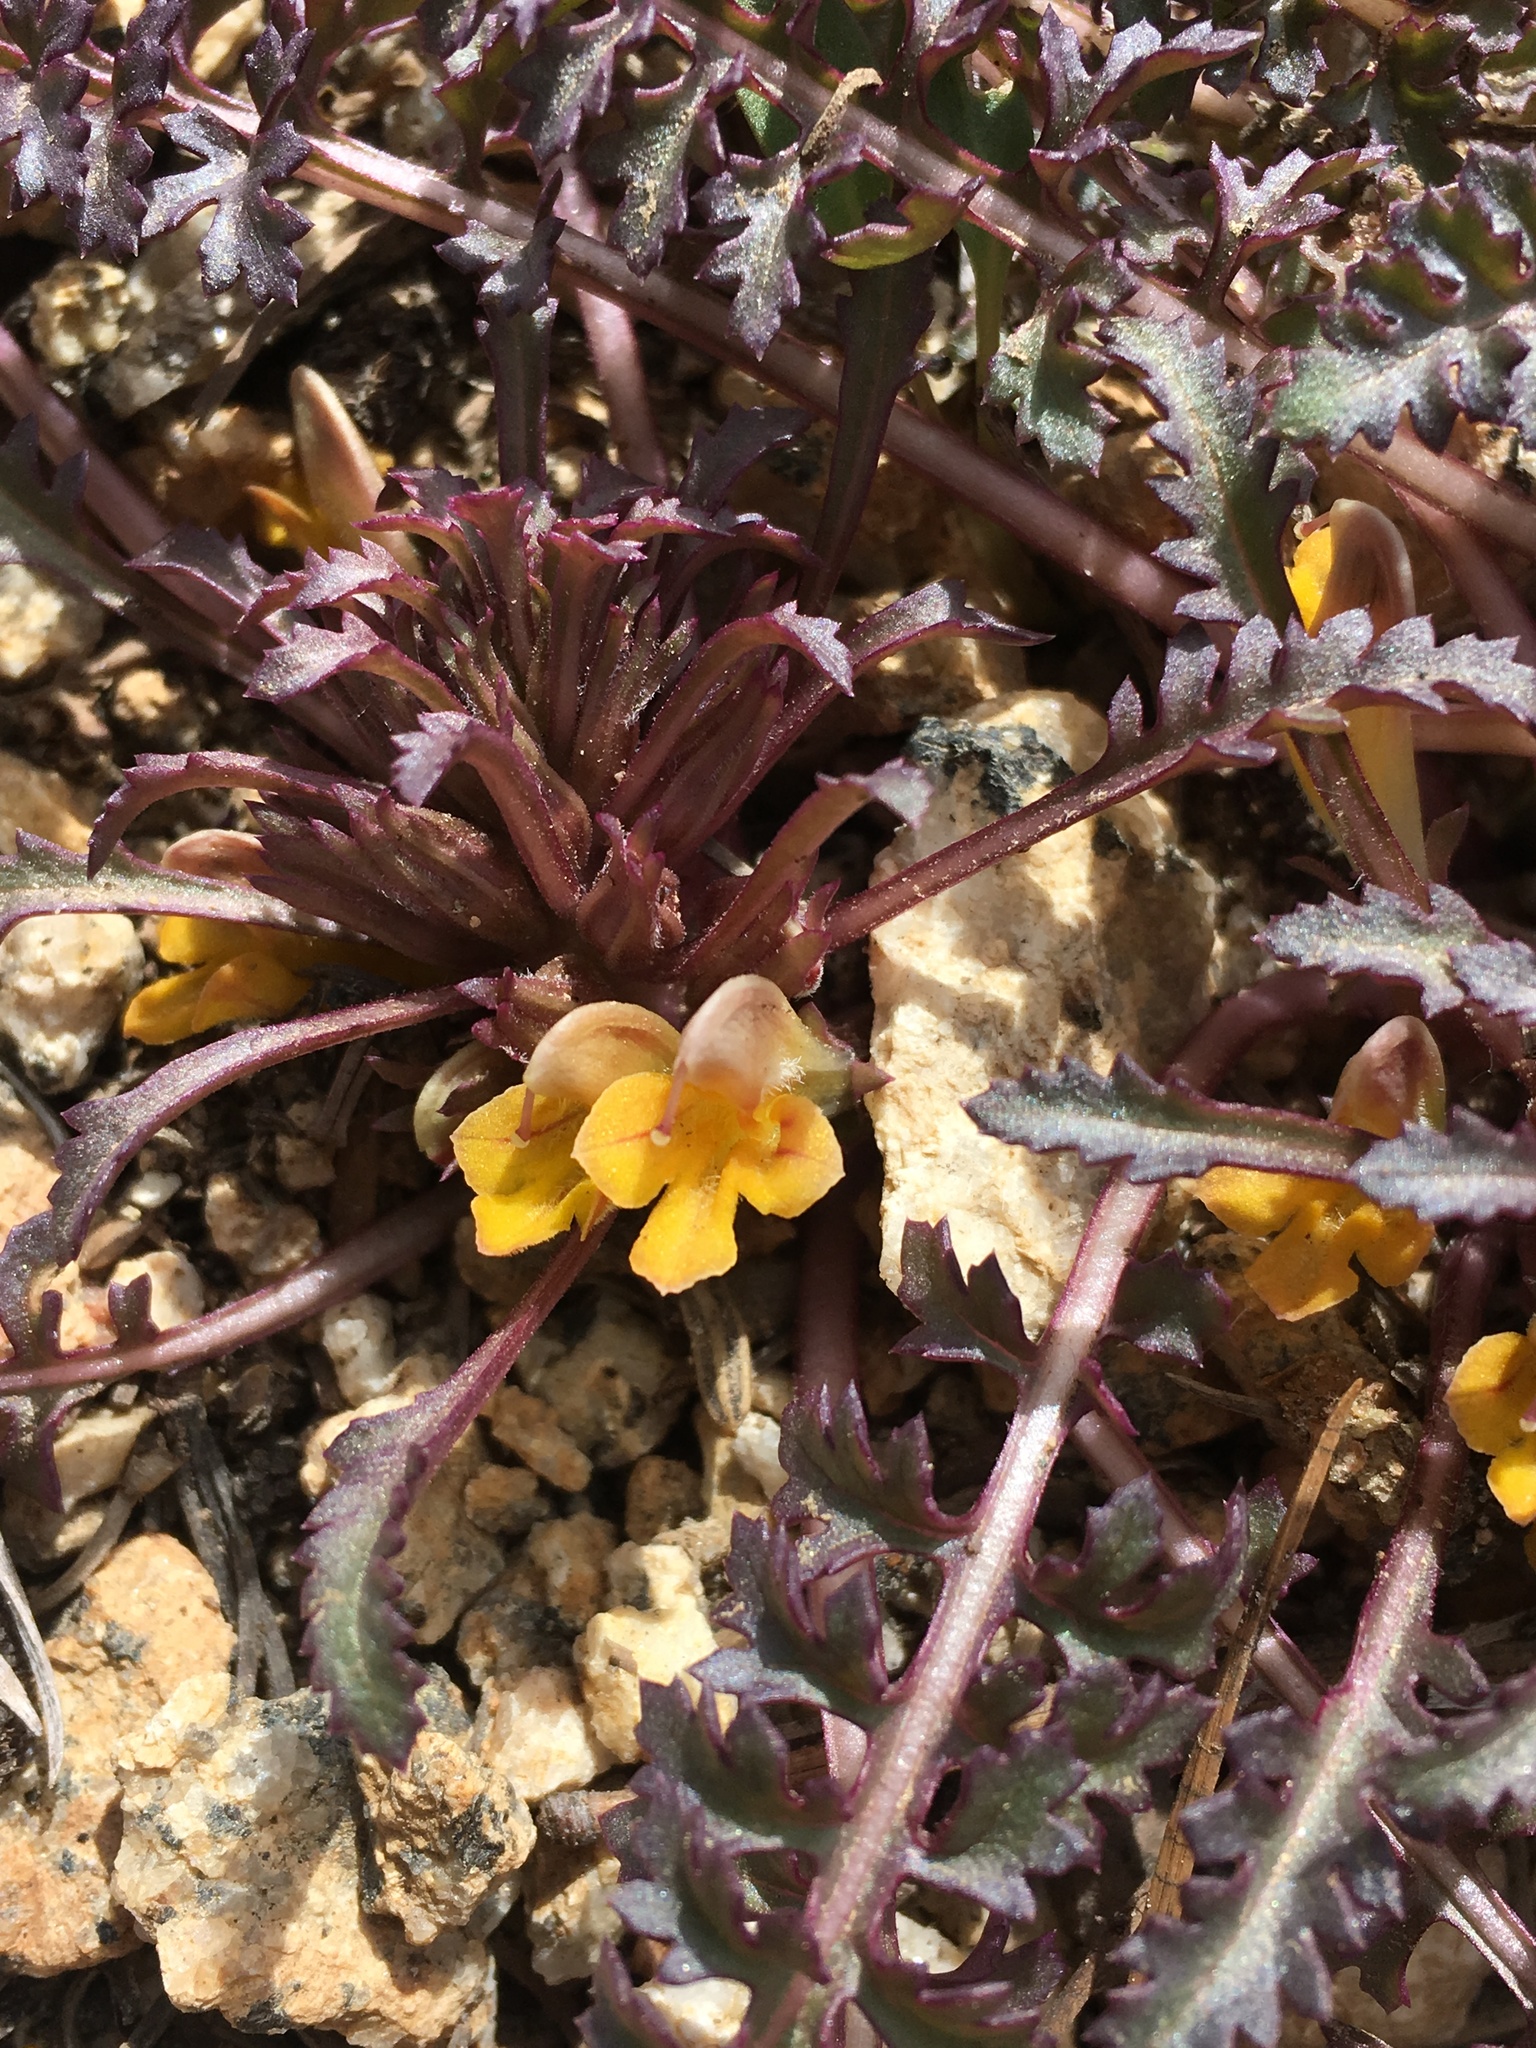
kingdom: Plantae
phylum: Tracheophyta
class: Magnoliopsida
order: Lamiales
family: Orobanchaceae
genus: Pedicularis
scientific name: Pedicularis semibarbata
